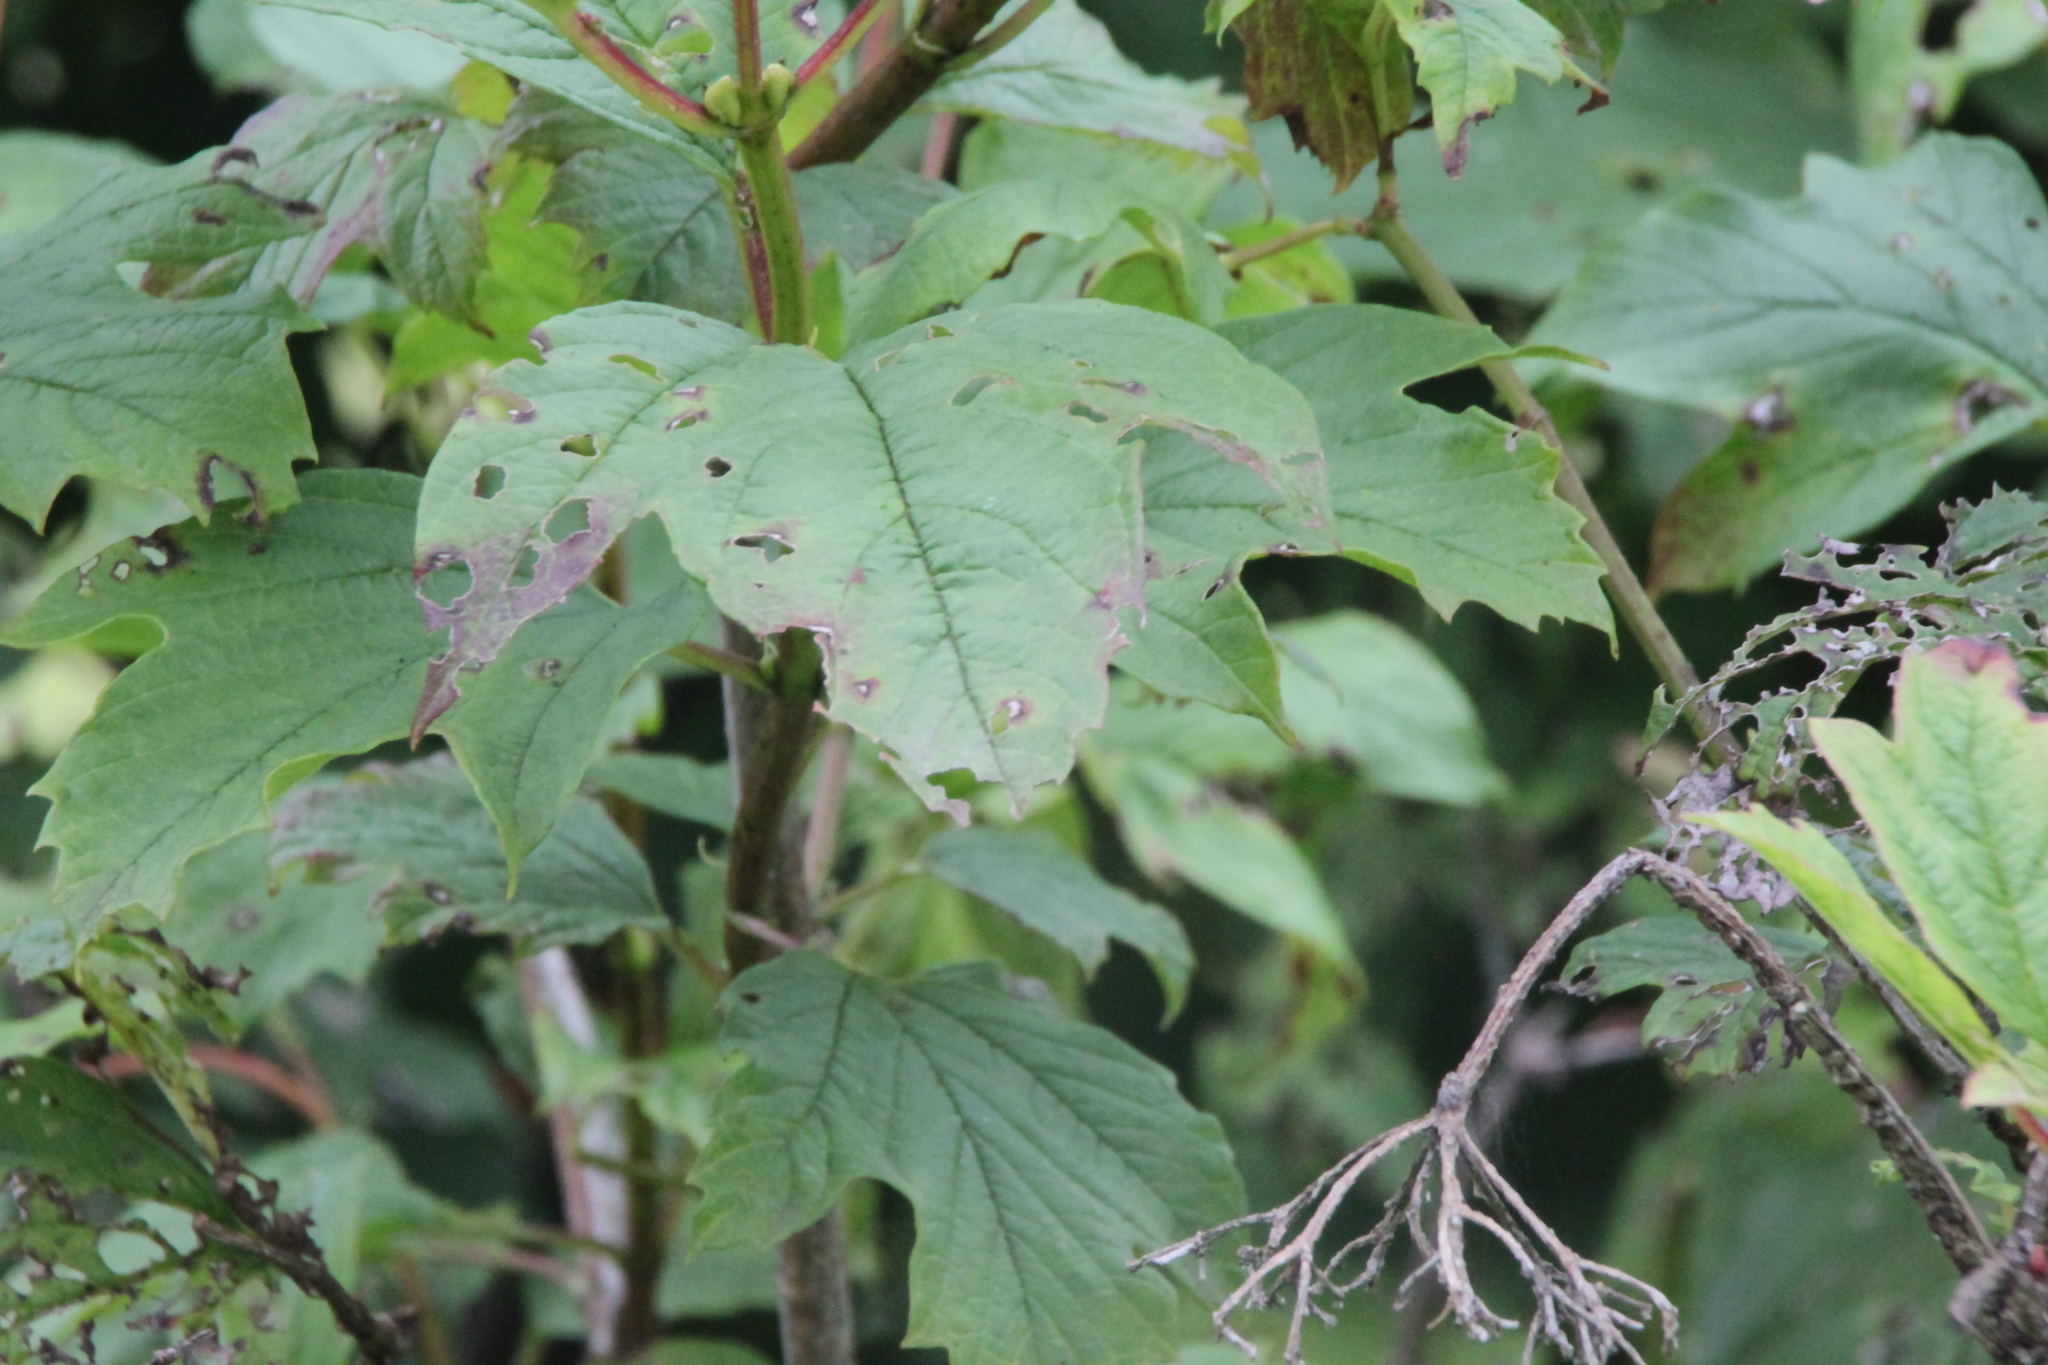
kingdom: Plantae
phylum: Tracheophyta
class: Magnoliopsida
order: Dipsacales
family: Viburnaceae
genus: Viburnum
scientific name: Viburnum opulus
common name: Guelder-rose
